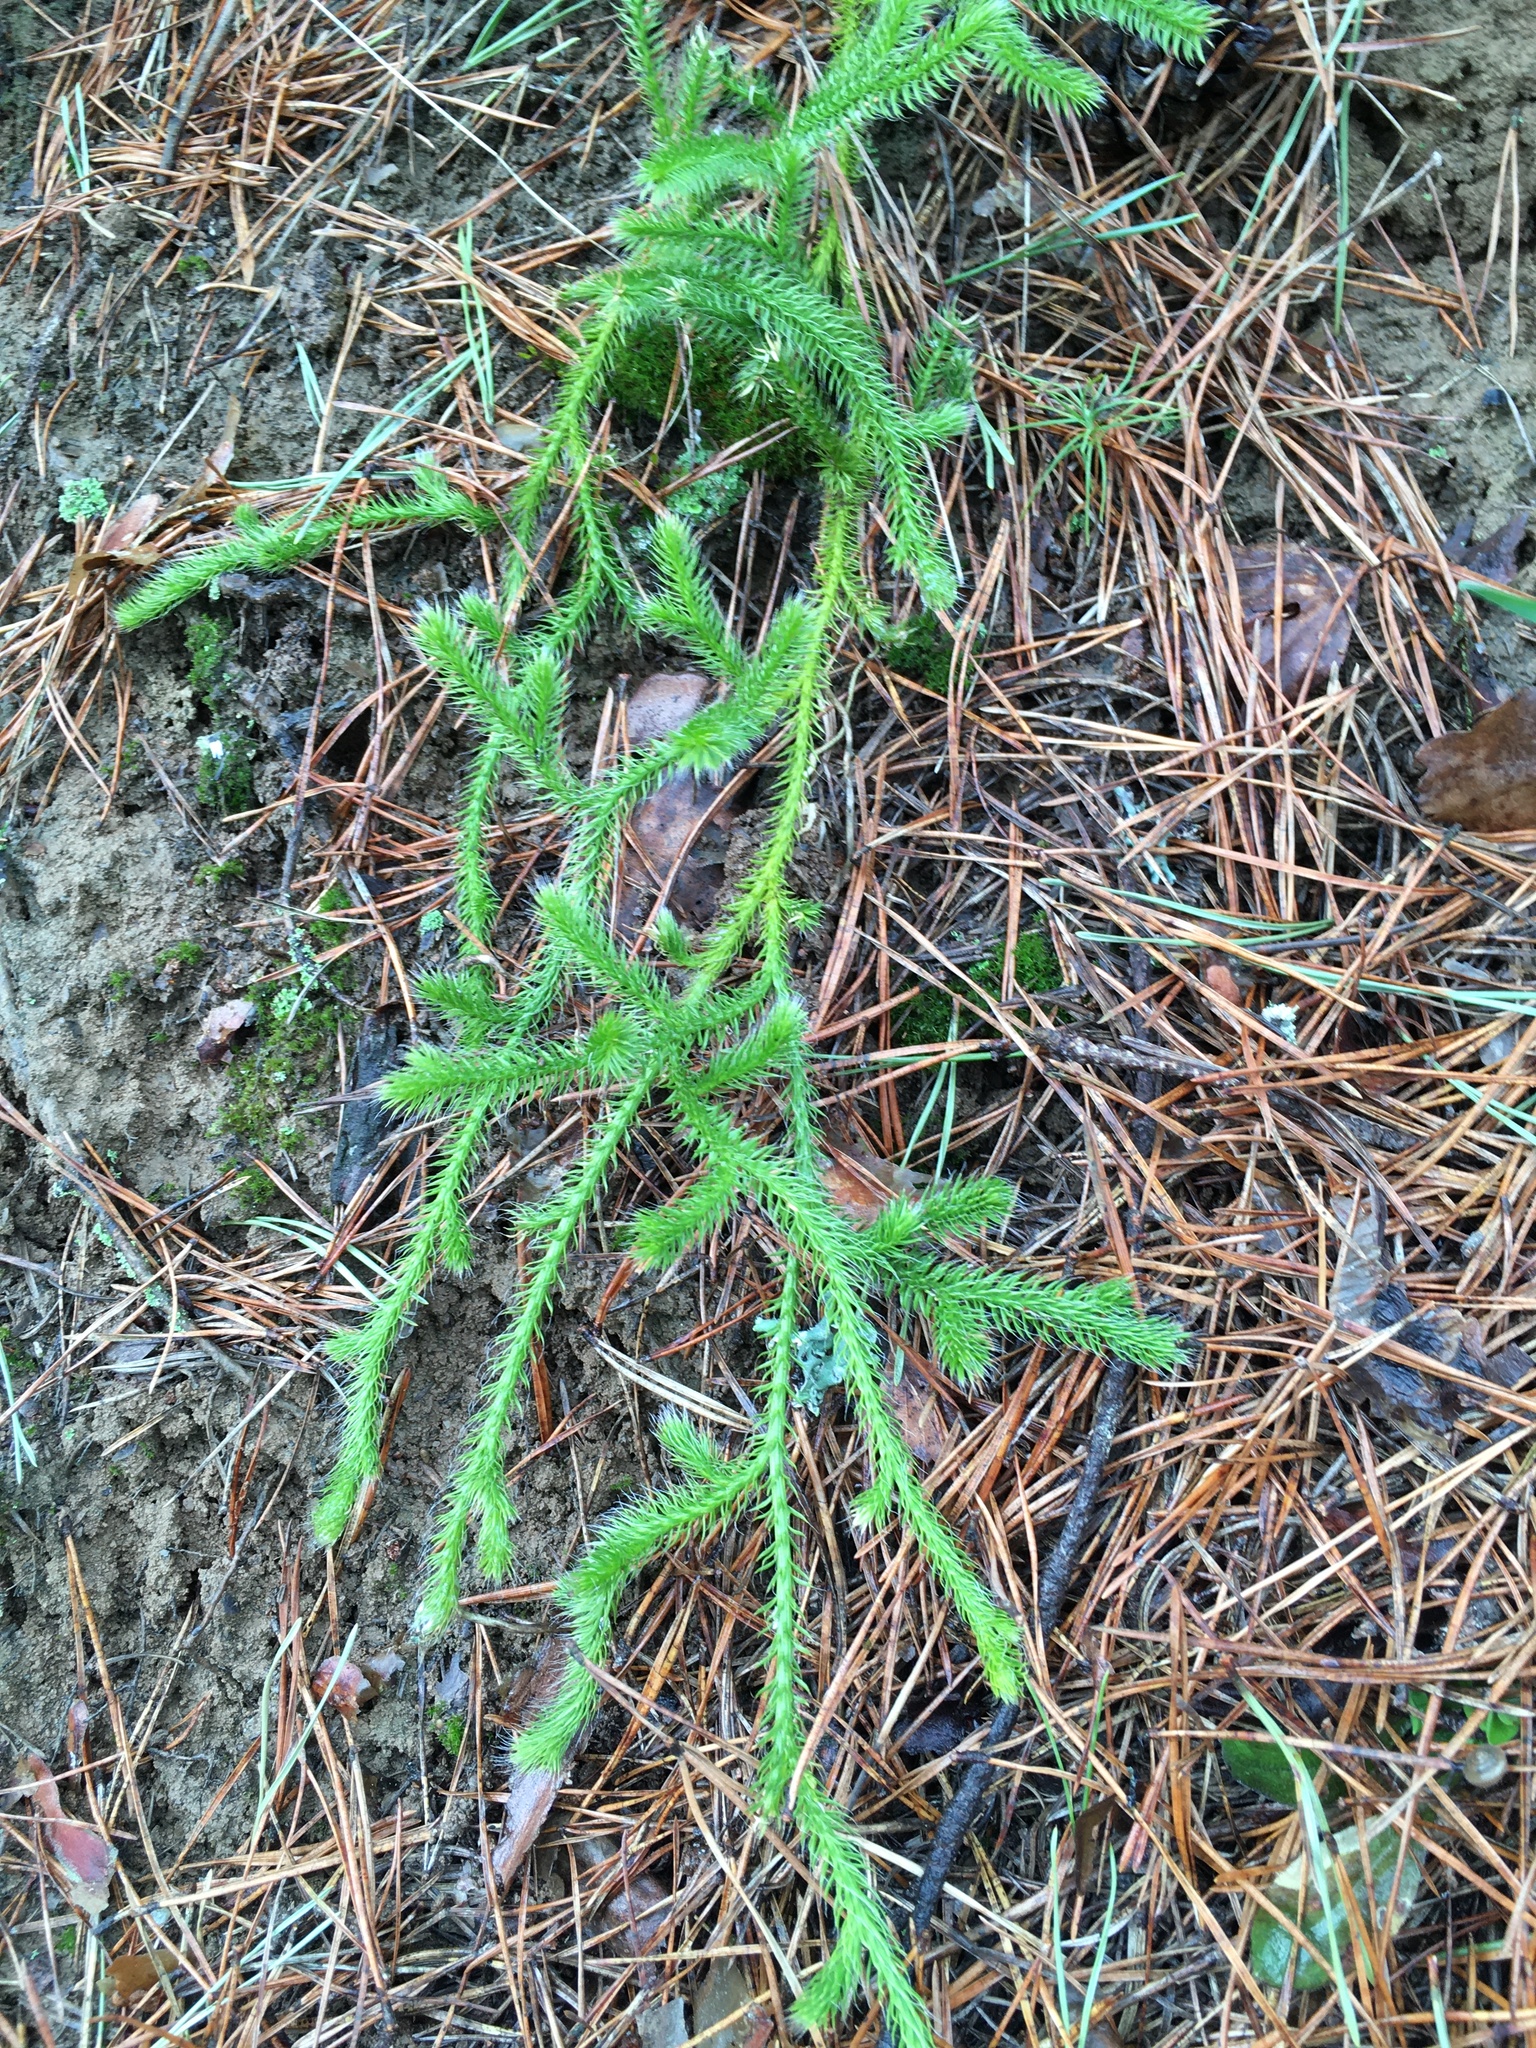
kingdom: Plantae
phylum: Tracheophyta
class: Lycopodiopsida
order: Lycopodiales
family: Lycopodiaceae
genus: Lycopodium
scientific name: Lycopodium clavatum
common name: Stag's-horn clubmoss
